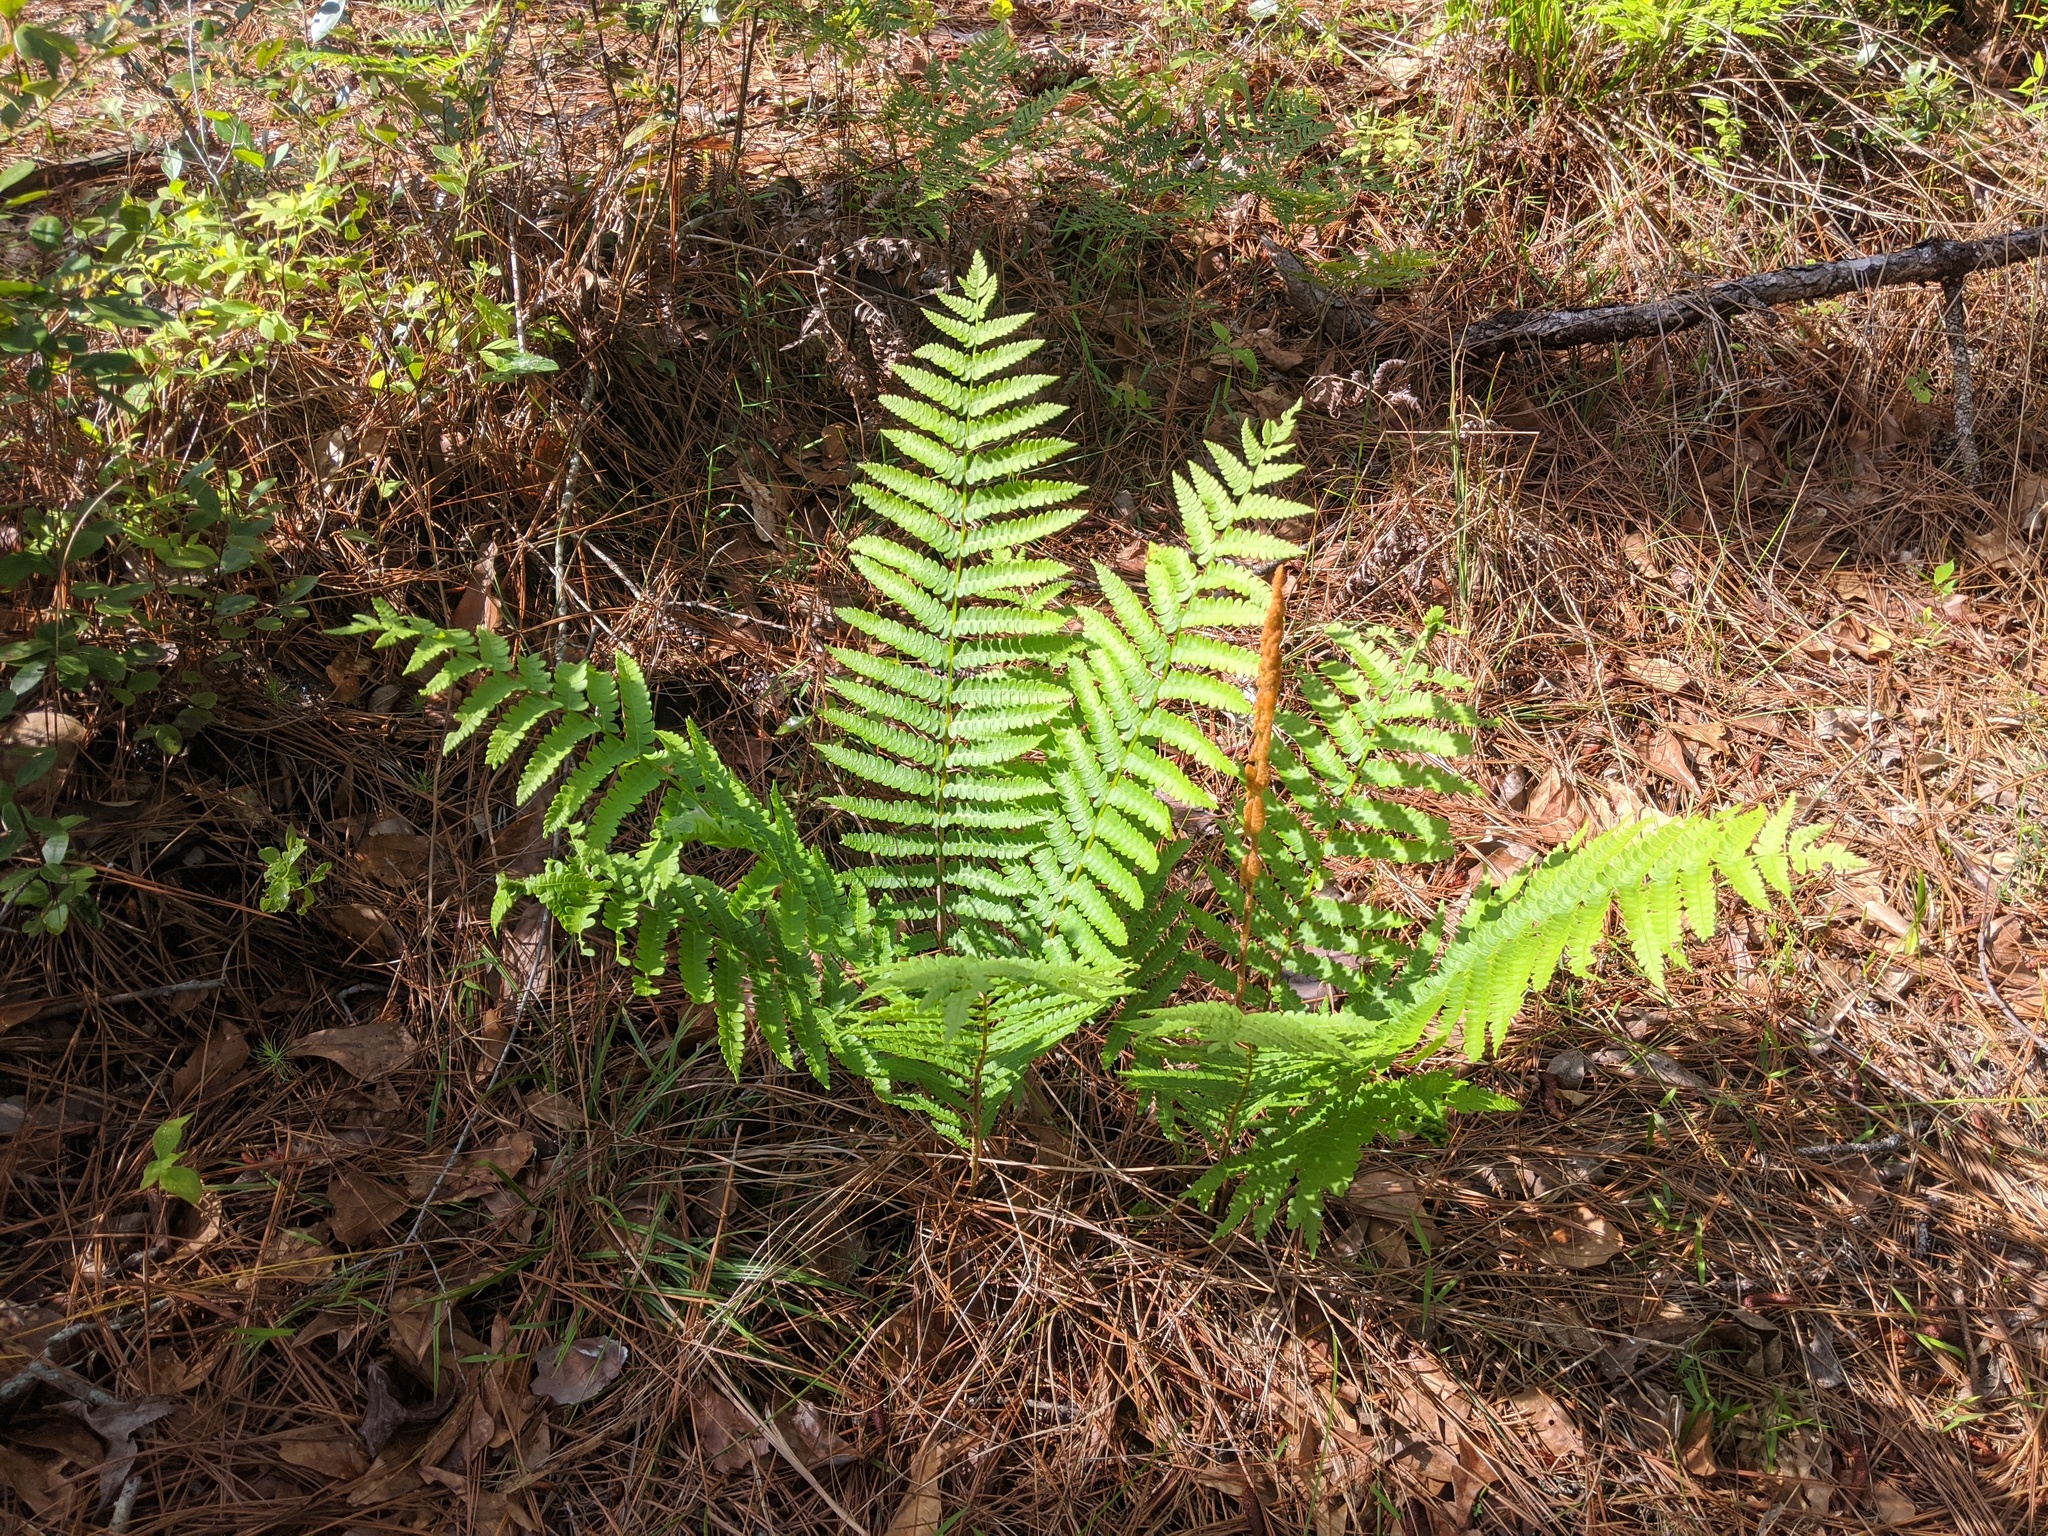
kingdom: Plantae
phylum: Tracheophyta
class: Polypodiopsida
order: Osmundales
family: Osmundaceae
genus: Osmundastrum
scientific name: Osmundastrum cinnamomeum
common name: Cinnamon fern
